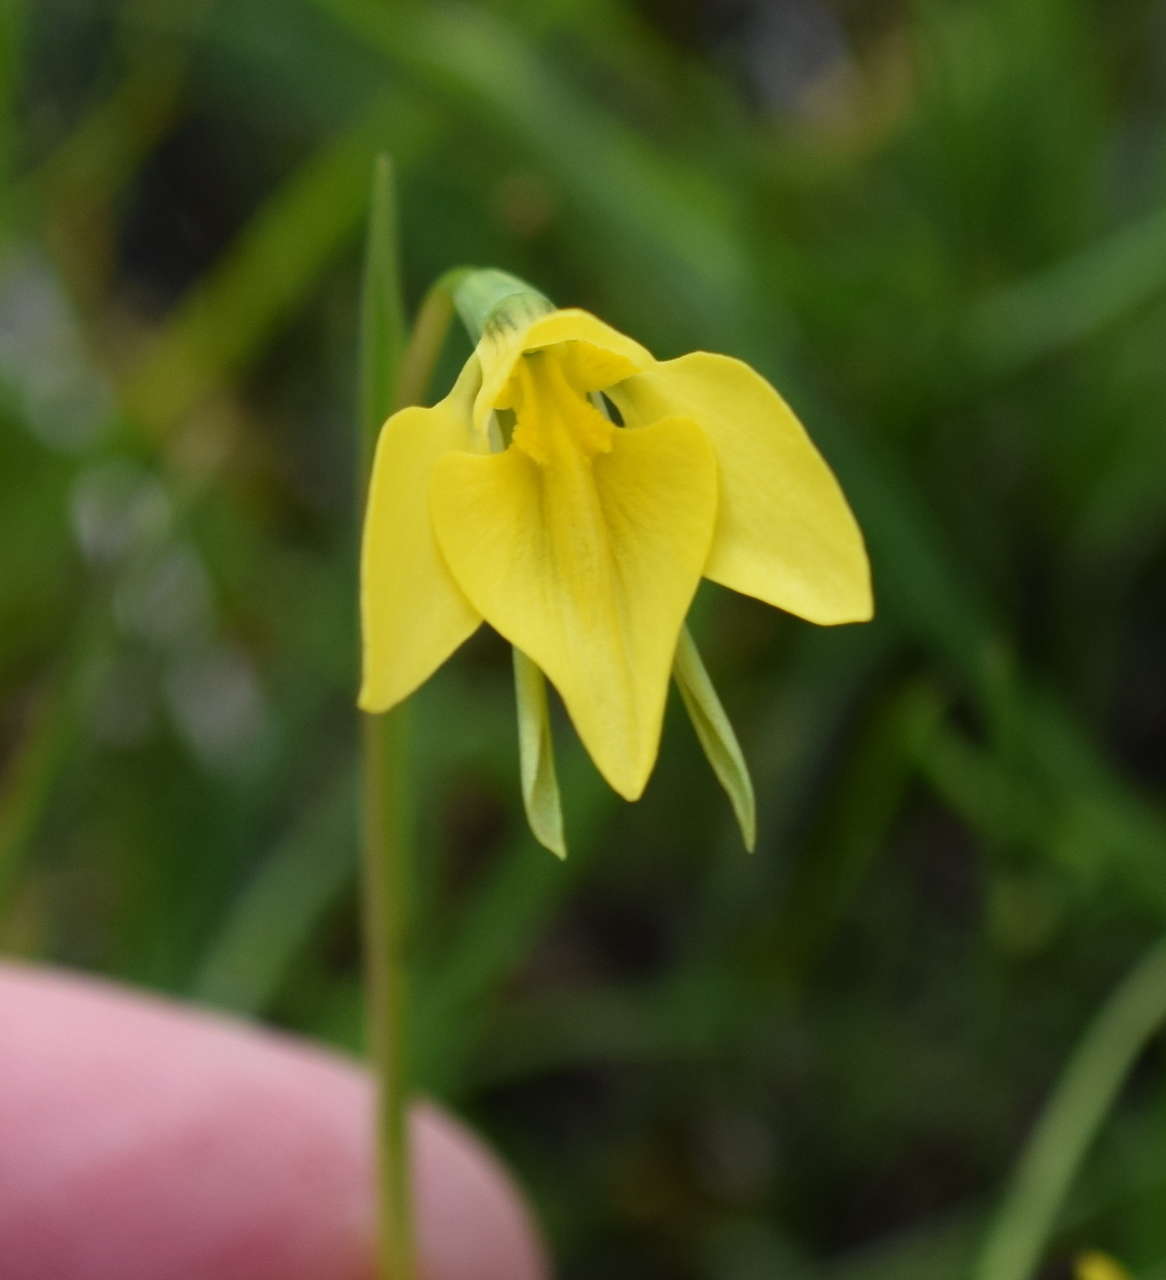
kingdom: Plantae
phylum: Tracheophyta
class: Liliopsida
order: Asparagales
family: Orchidaceae
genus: Diuris
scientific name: Diuris chryseopsis
